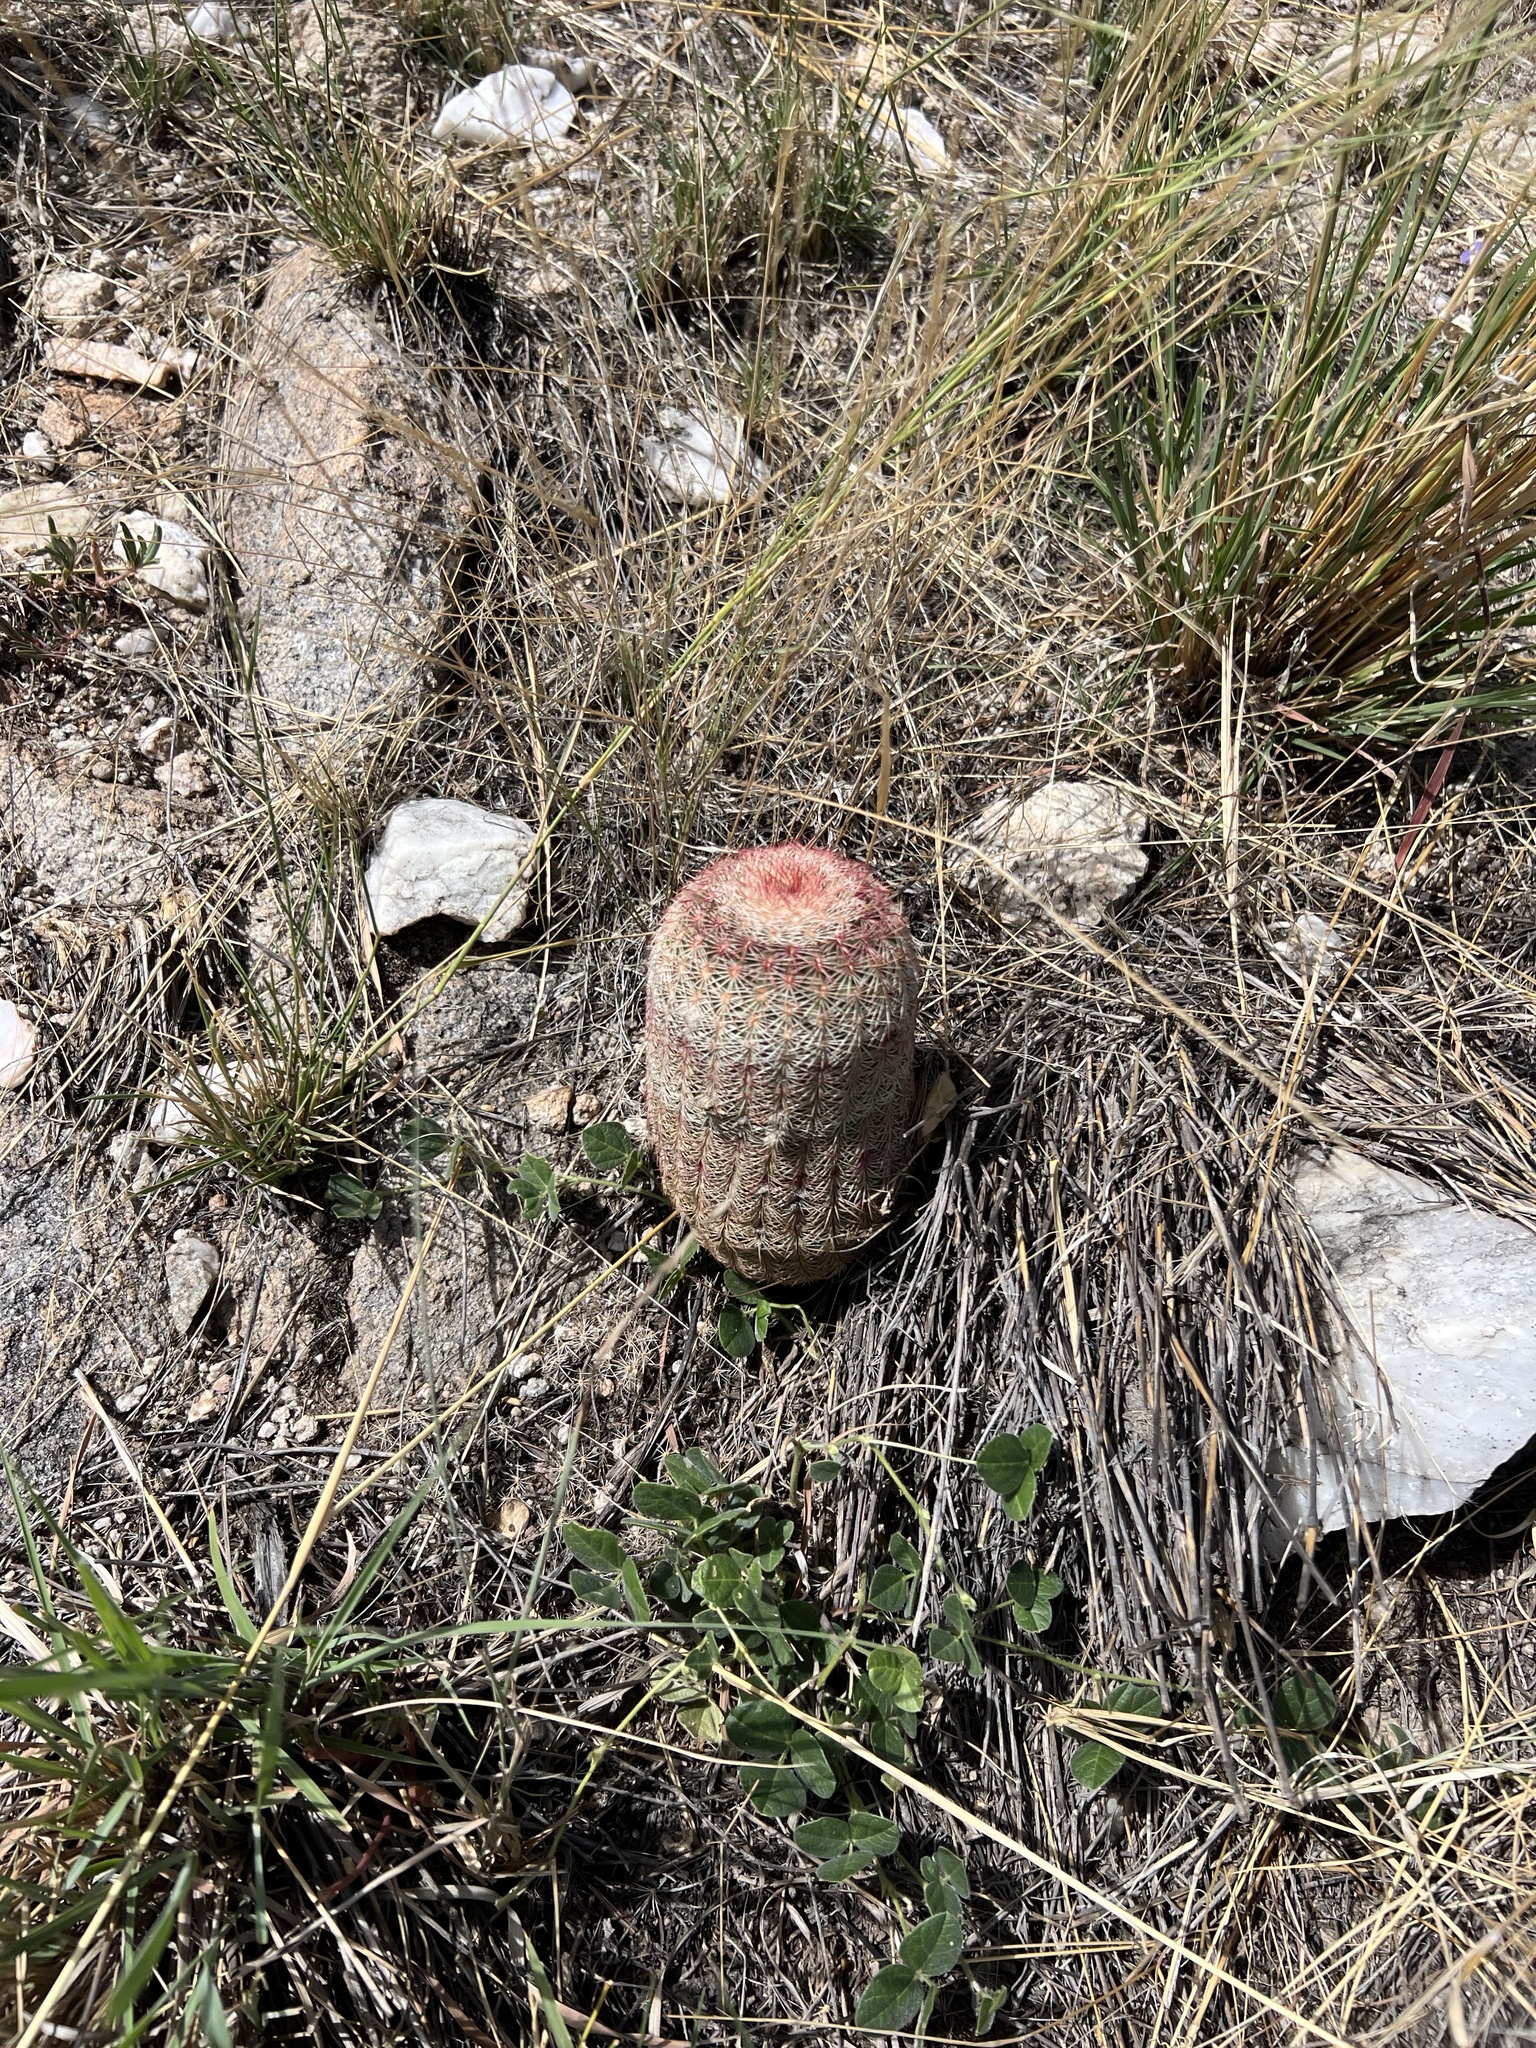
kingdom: Plantae
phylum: Tracheophyta
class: Magnoliopsida
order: Caryophyllales
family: Cactaceae
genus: Echinocereus
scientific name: Echinocereus rigidissimus
